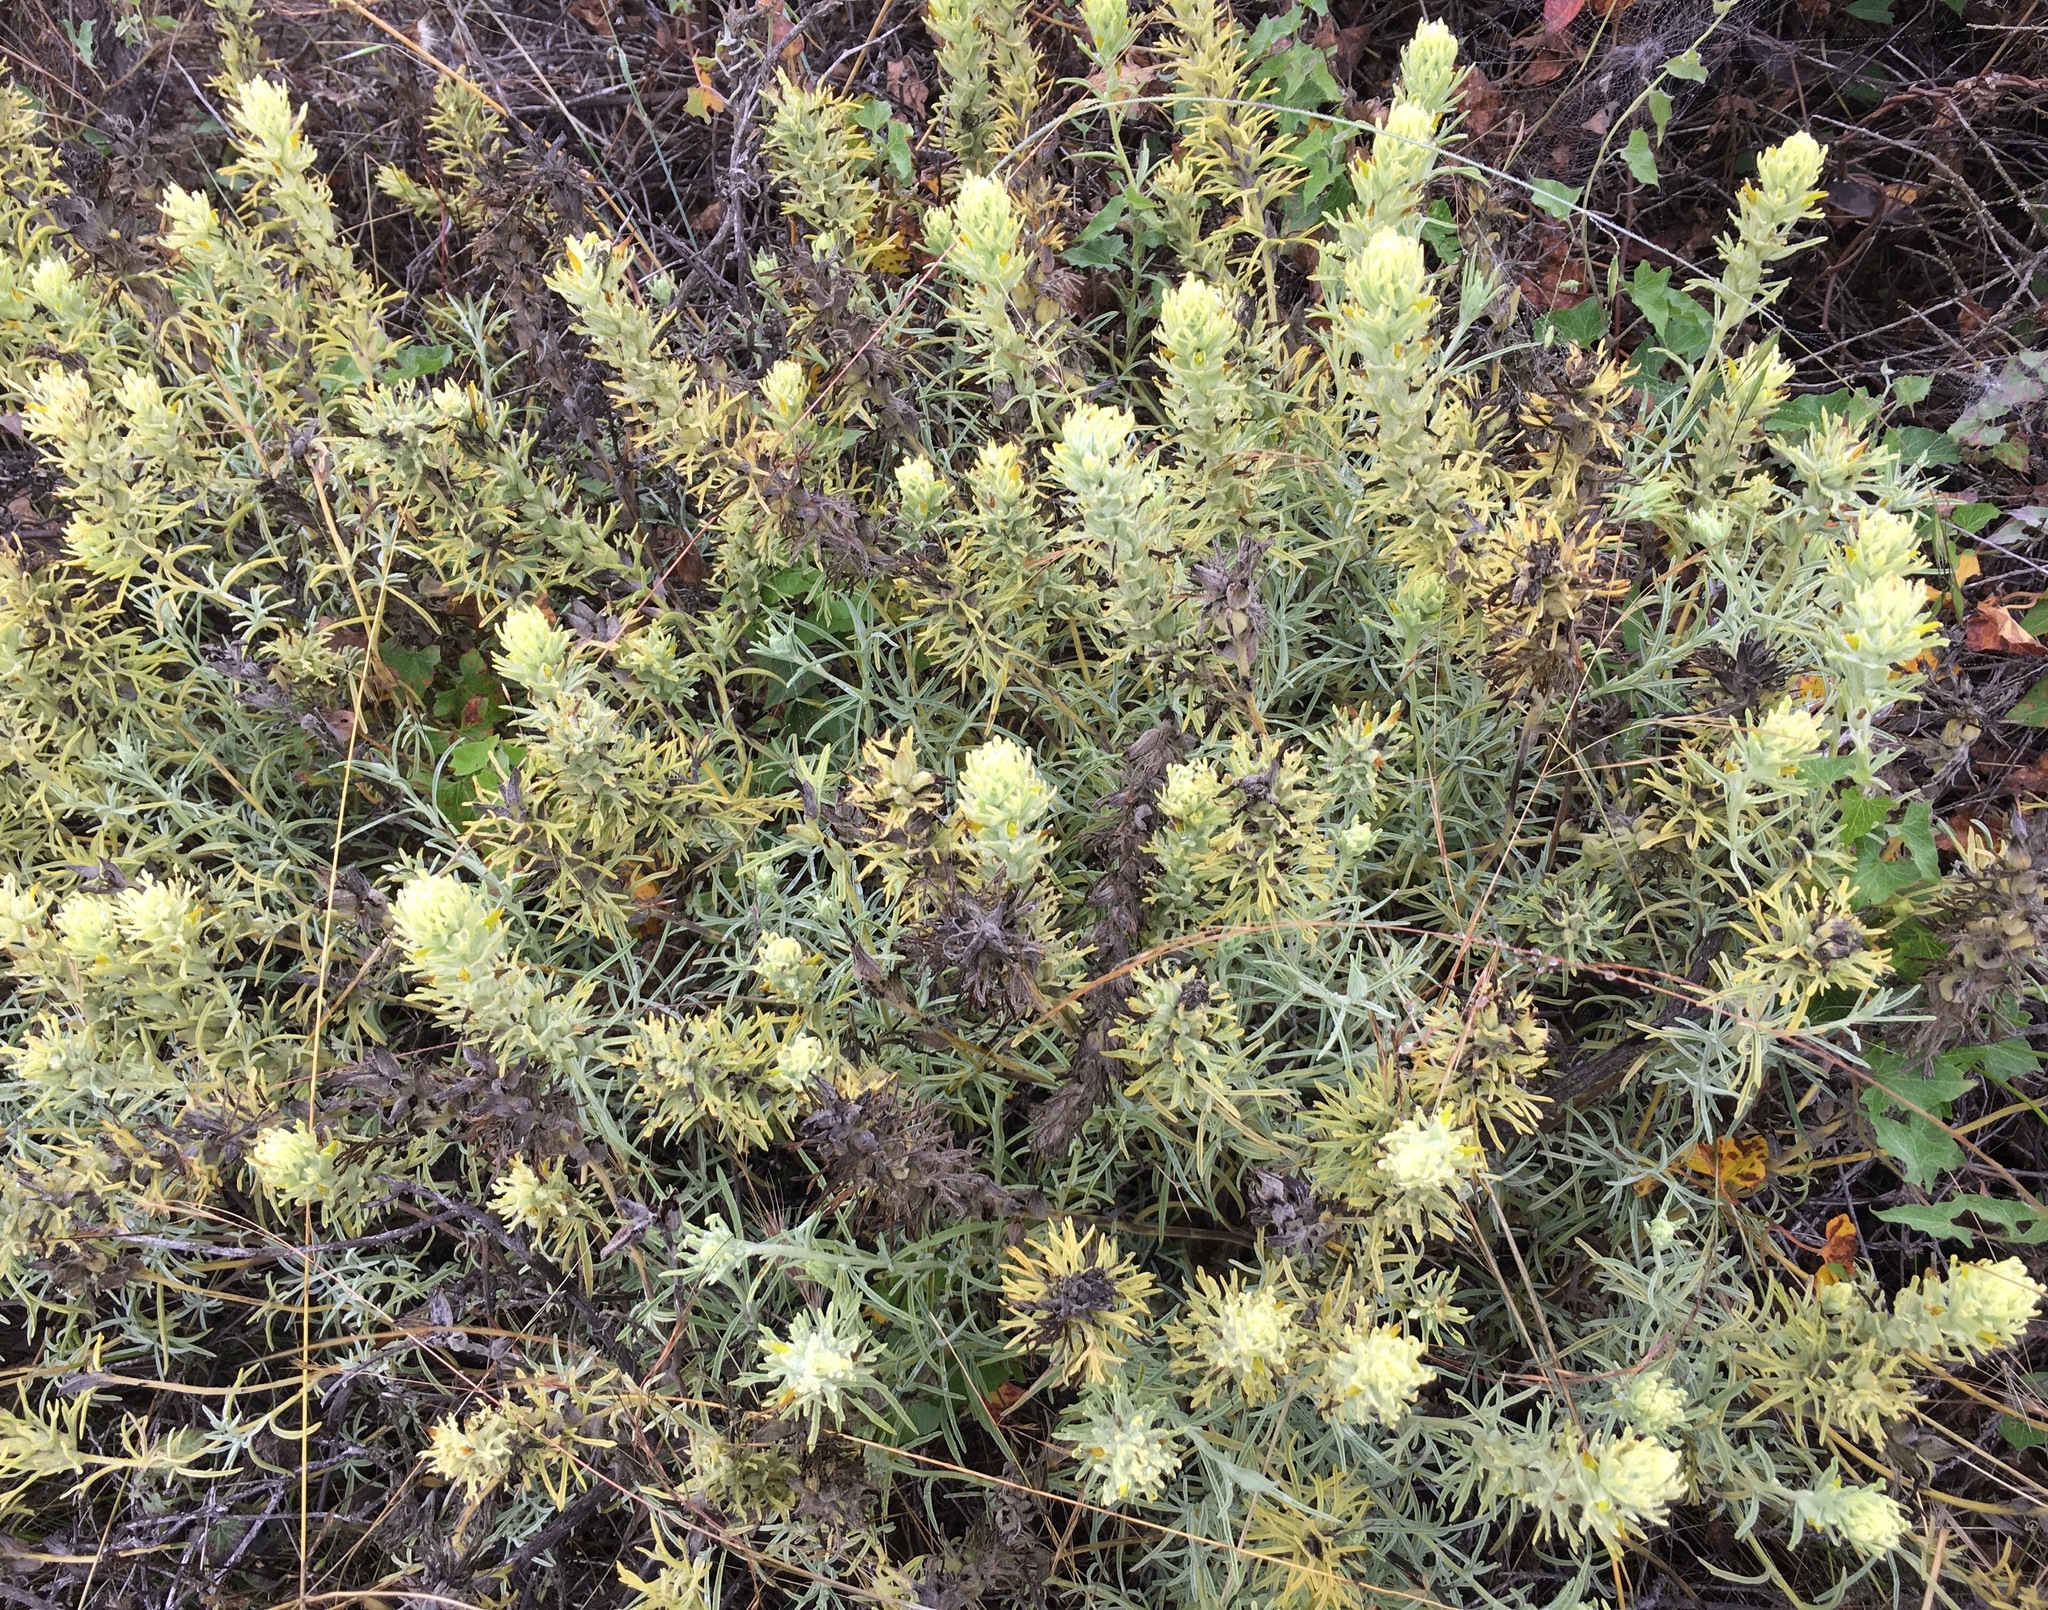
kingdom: Plantae
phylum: Tracheophyta
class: Magnoliopsida
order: Lamiales
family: Orobanchaceae
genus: Castilleja
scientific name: Castilleja grisea
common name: San clemente island indian paintbrush
